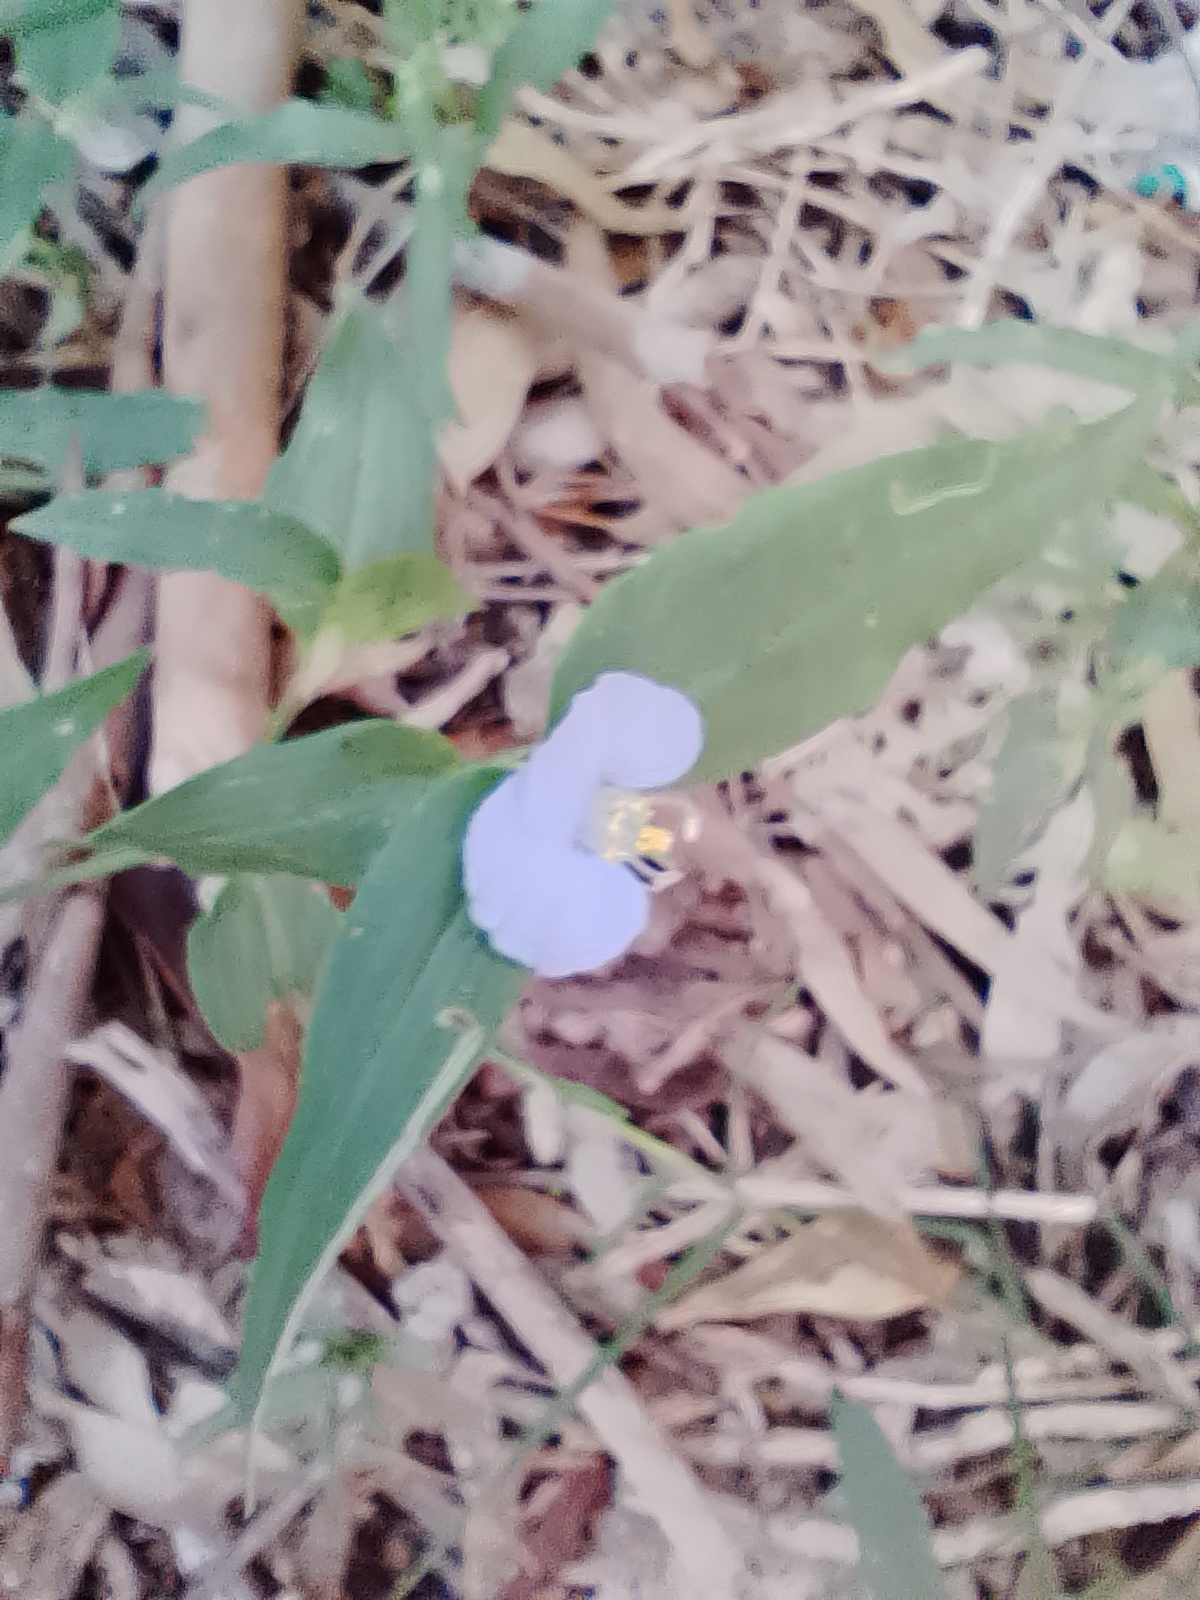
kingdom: Plantae
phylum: Tracheophyta
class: Liliopsida
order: Commelinales
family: Commelinaceae
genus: Commelina
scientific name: Commelina erecta
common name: Blousel blommetjie
